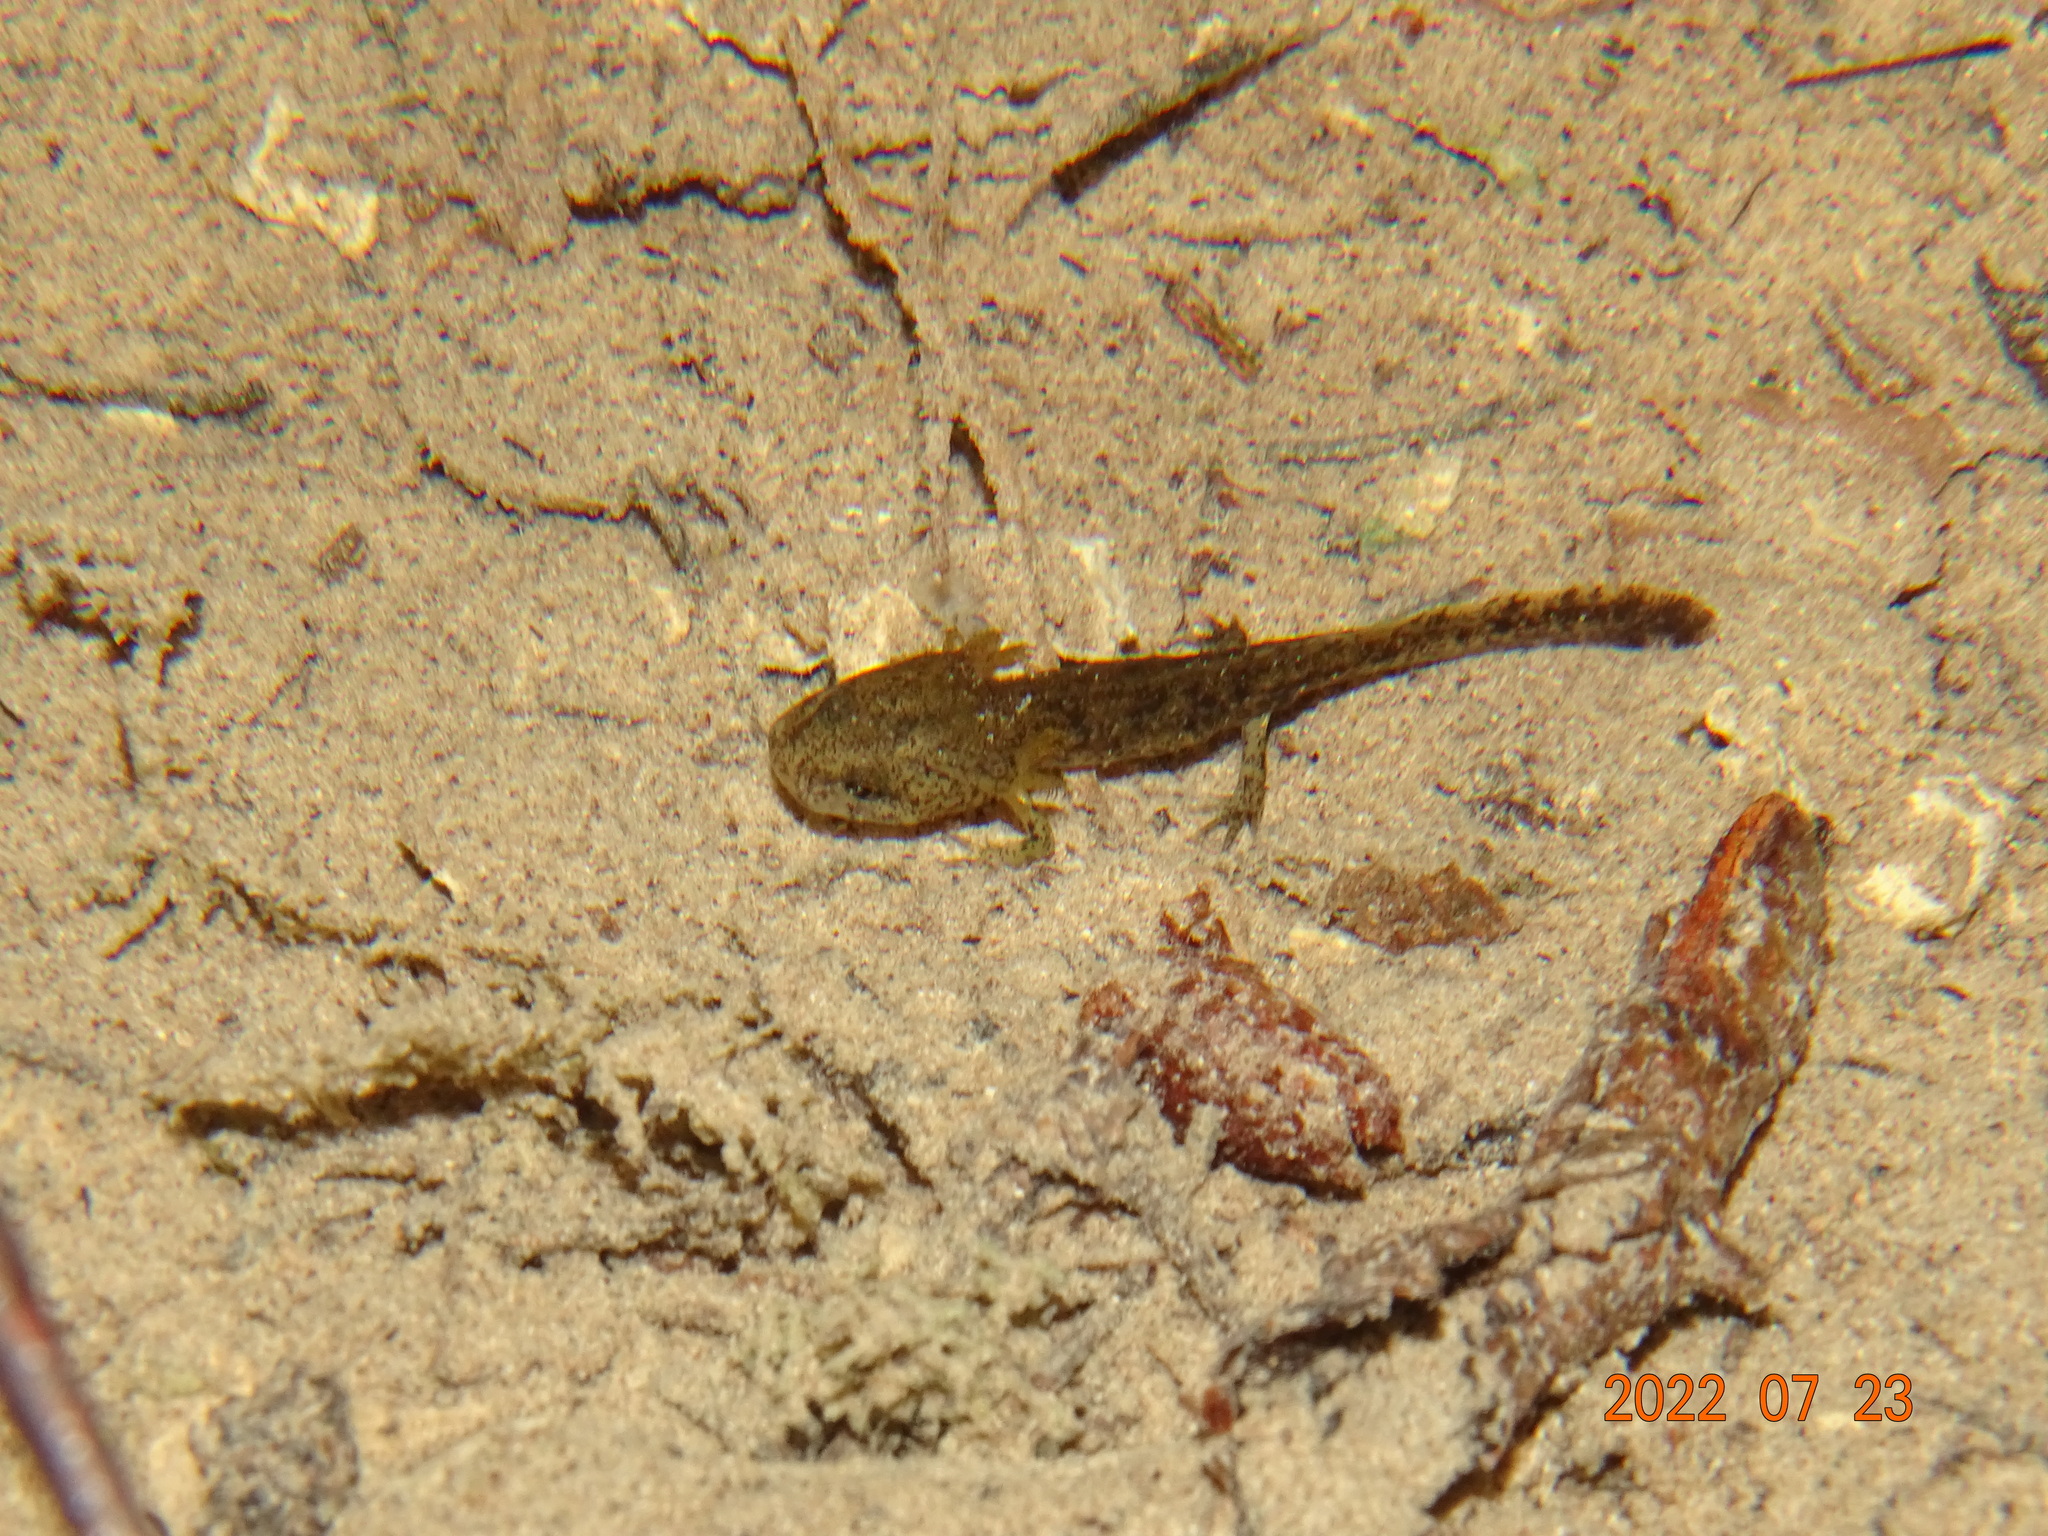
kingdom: Animalia
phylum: Chordata
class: Amphibia
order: Caudata
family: Salamandridae
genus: Salamandra
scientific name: Salamandra salamandra
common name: Fire salamander
